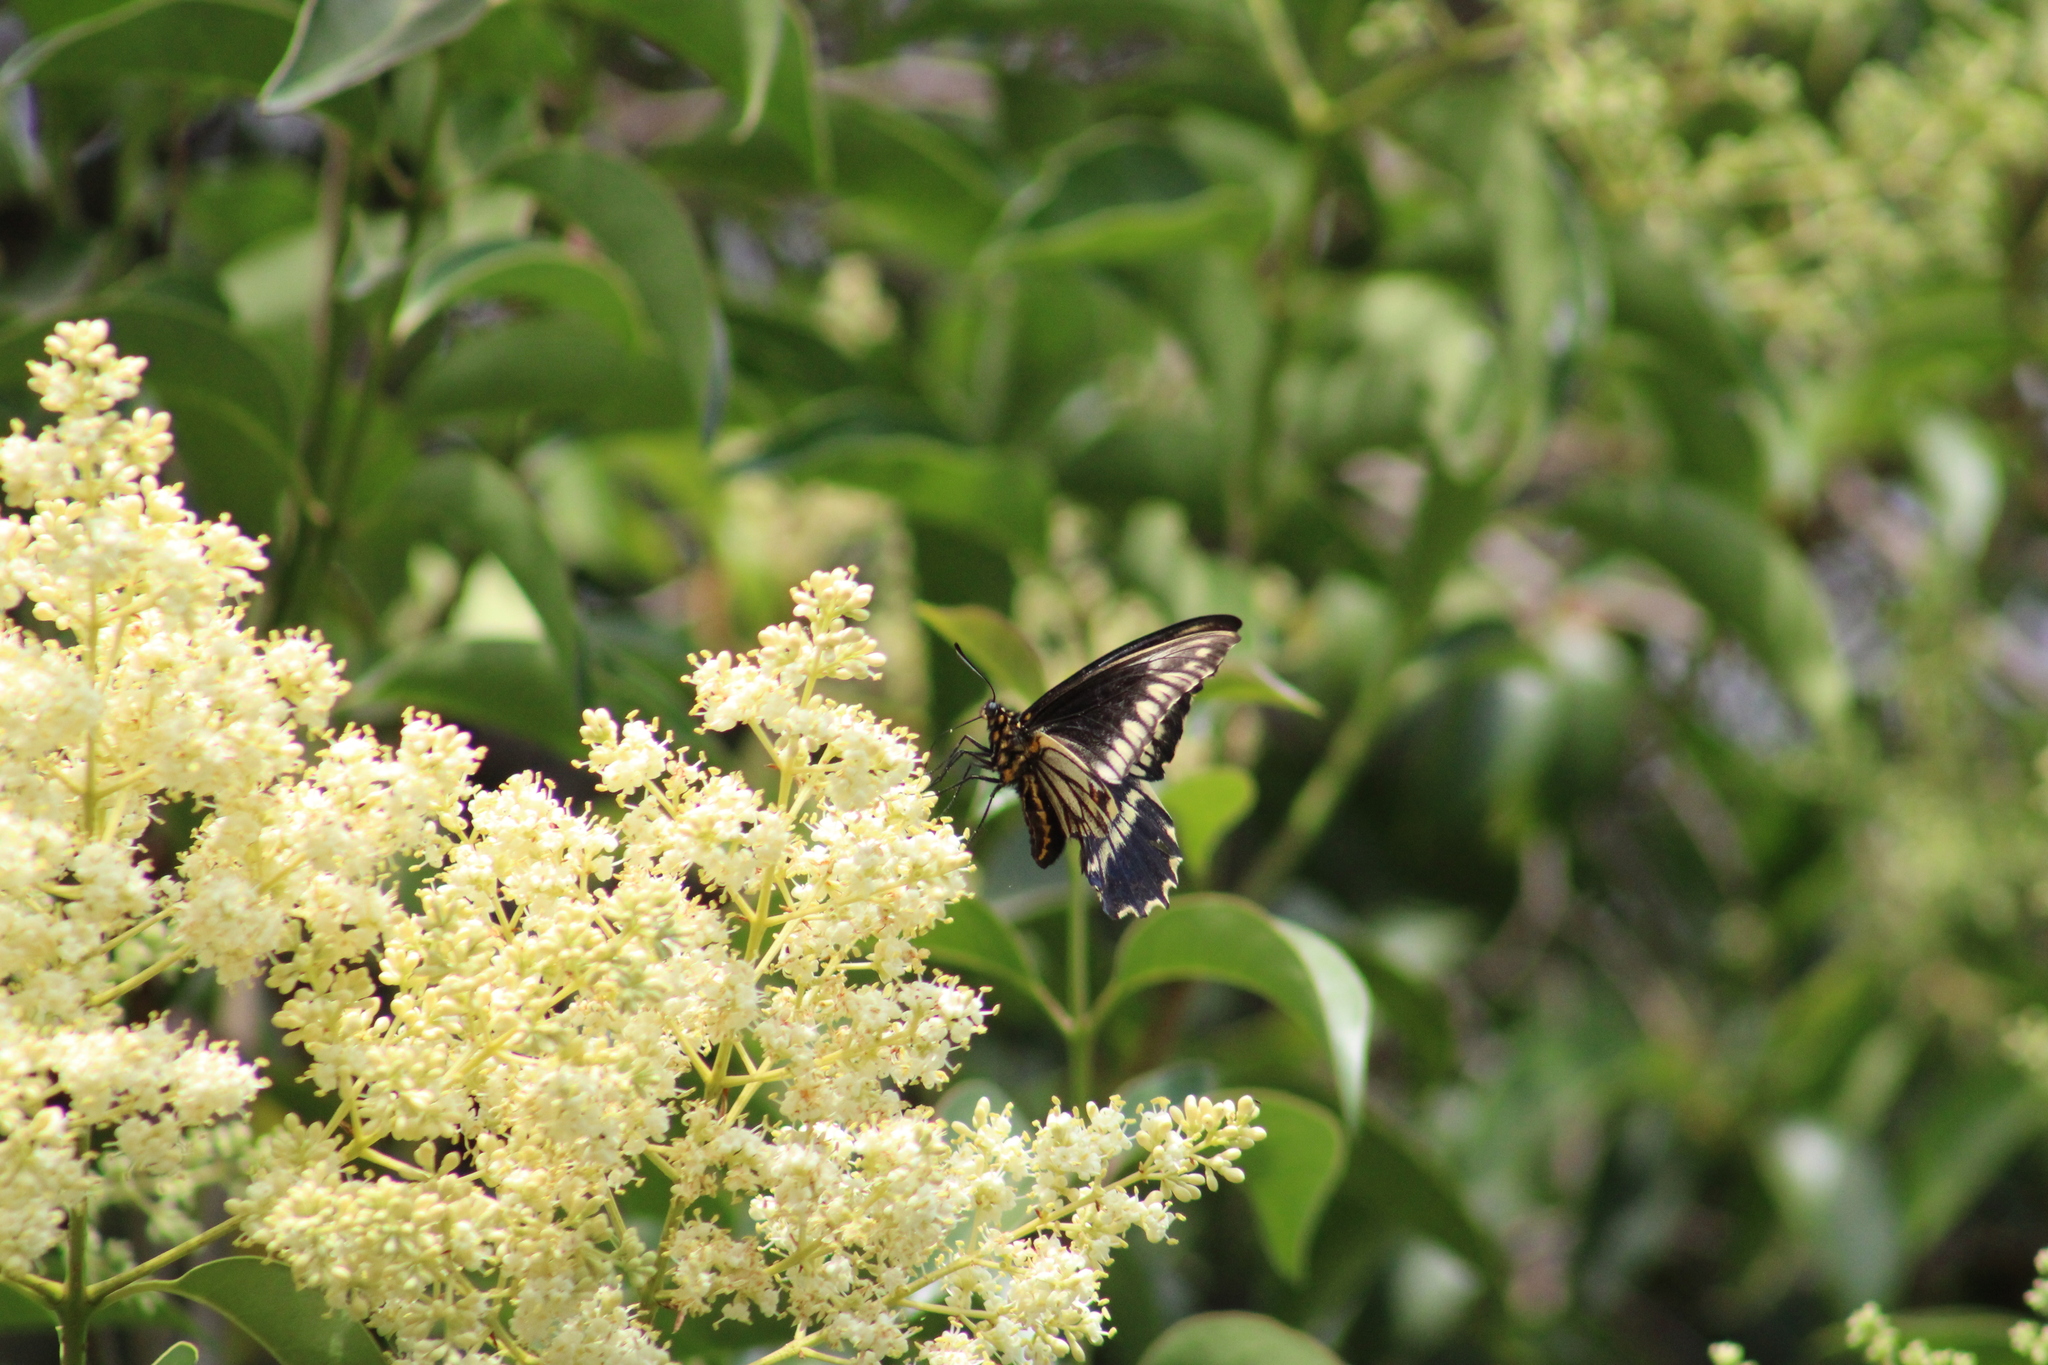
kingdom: Animalia
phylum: Arthropoda
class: Insecta
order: Lepidoptera
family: Papilionidae
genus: Battus
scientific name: Battus polydamas
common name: Polydamas swallowtail
